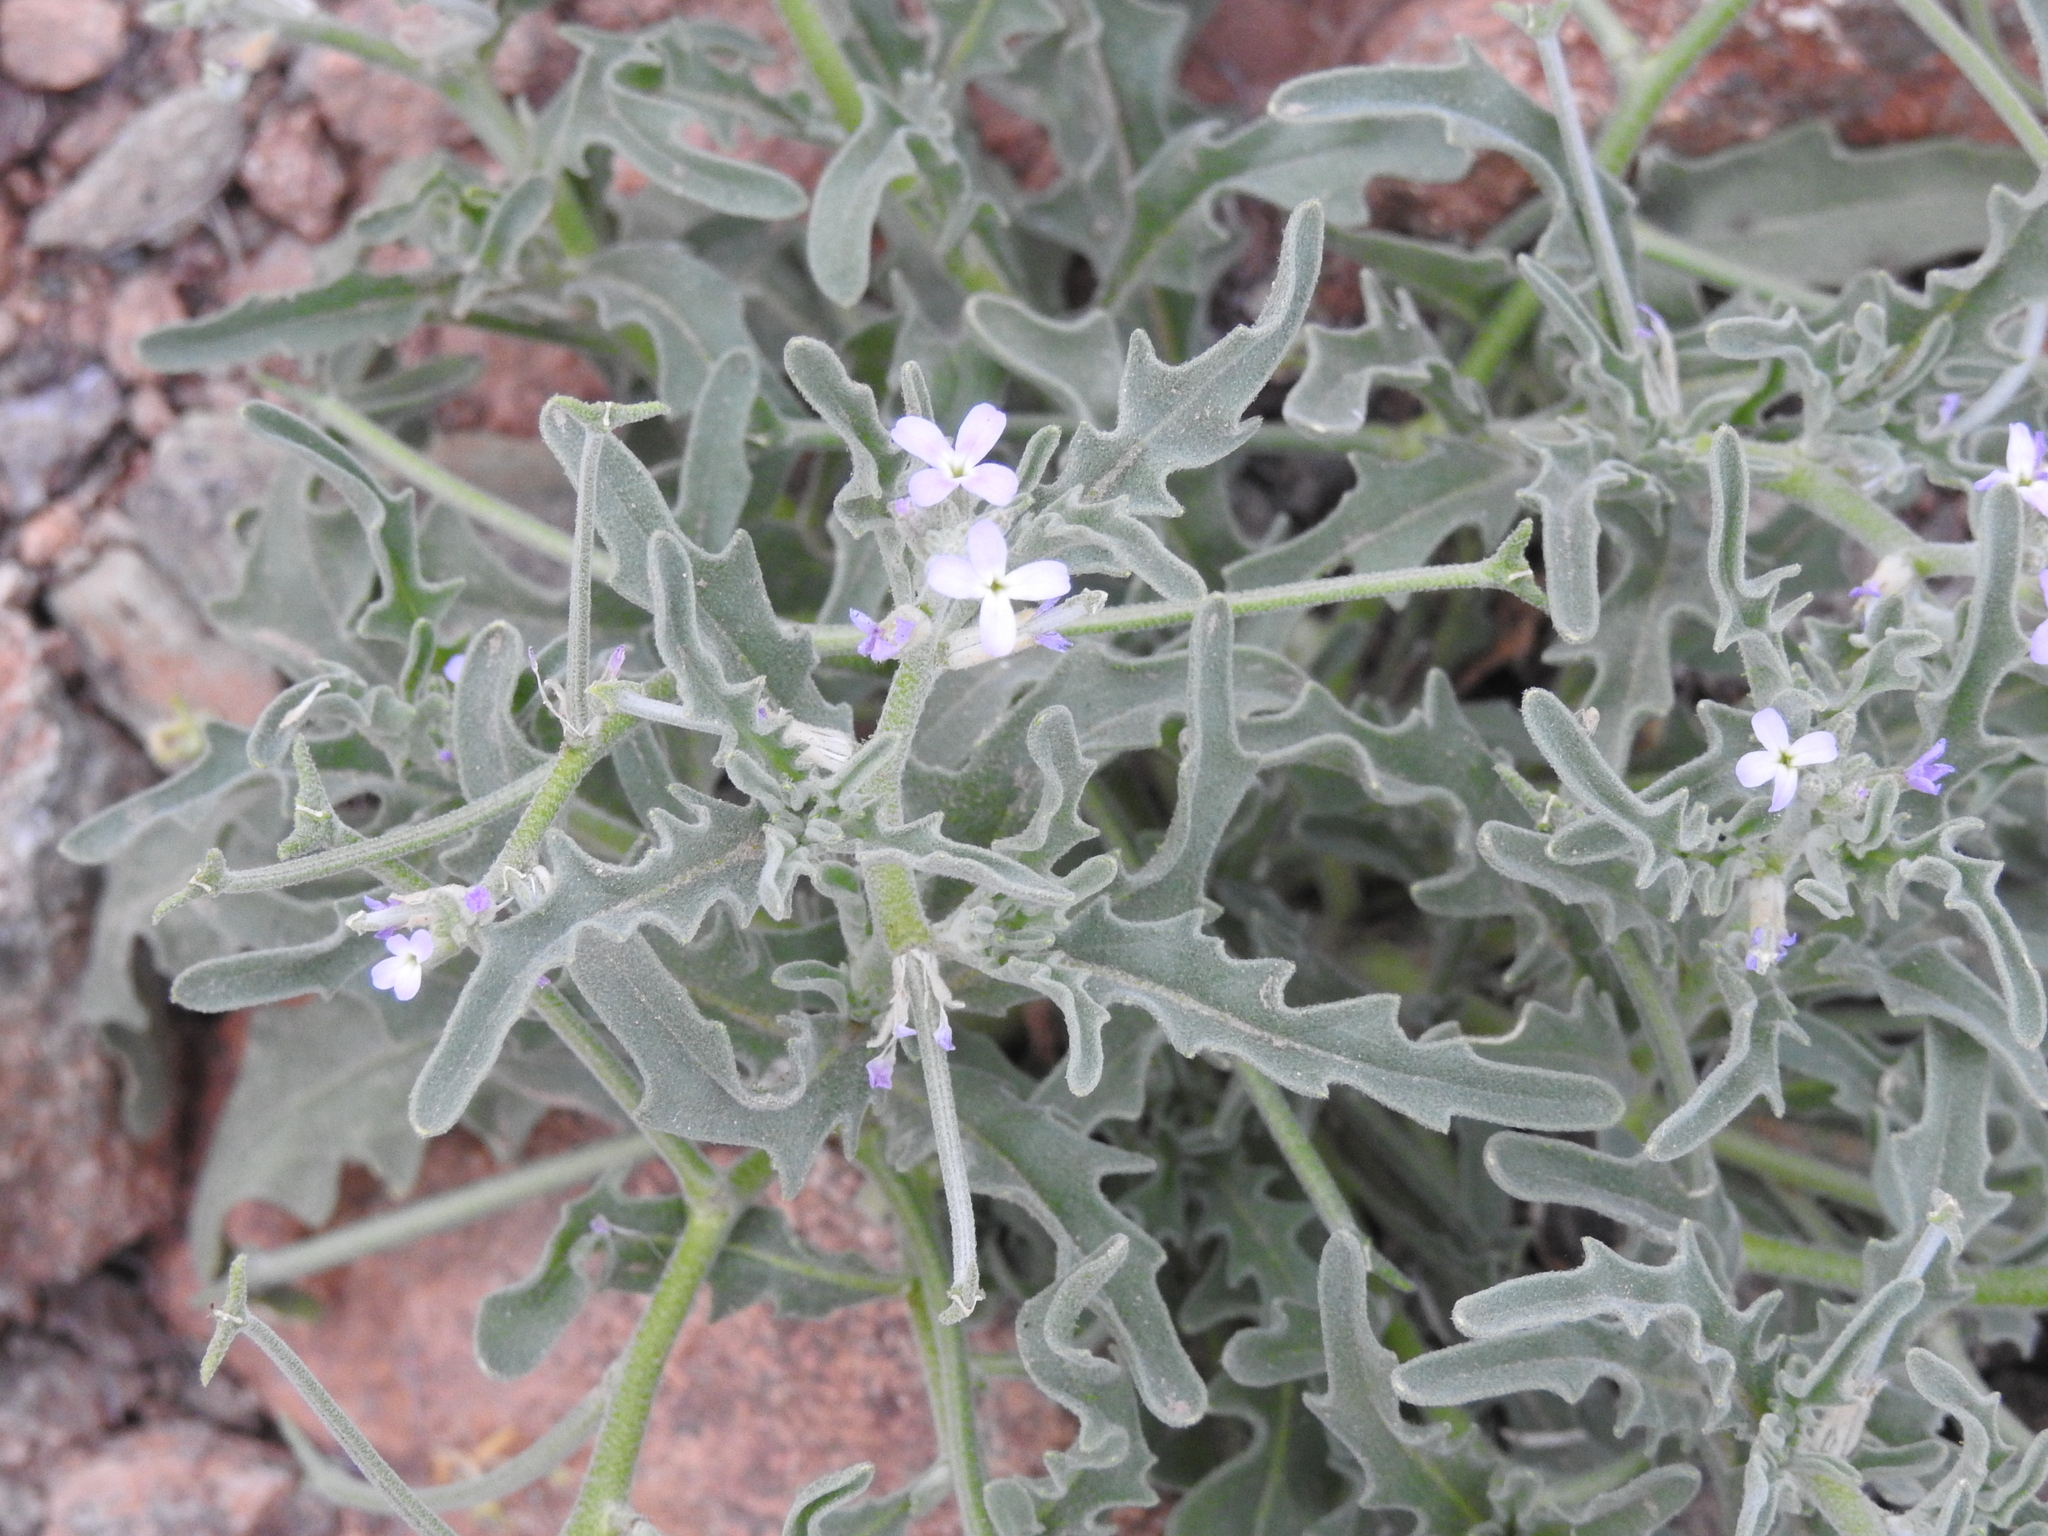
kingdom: Plantae
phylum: Tracheophyta
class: Magnoliopsida
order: Brassicales
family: Brassicaceae
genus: Matthiola
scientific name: Matthiola parviflora
